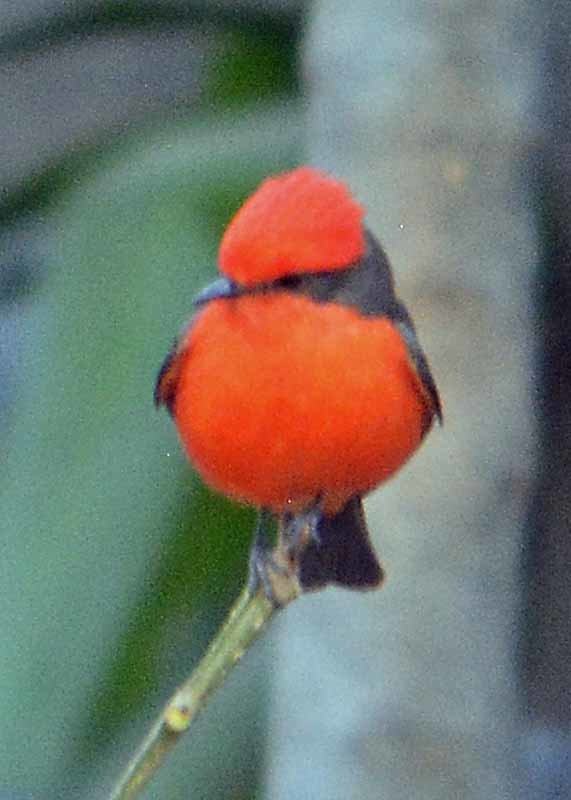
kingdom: Animalia
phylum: Chordata
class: Aves
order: Passeriformes
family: Tyrannidae
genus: Pyrocephalus
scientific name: Pyrocephalus rubinus
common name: Vermilion flycatcher
